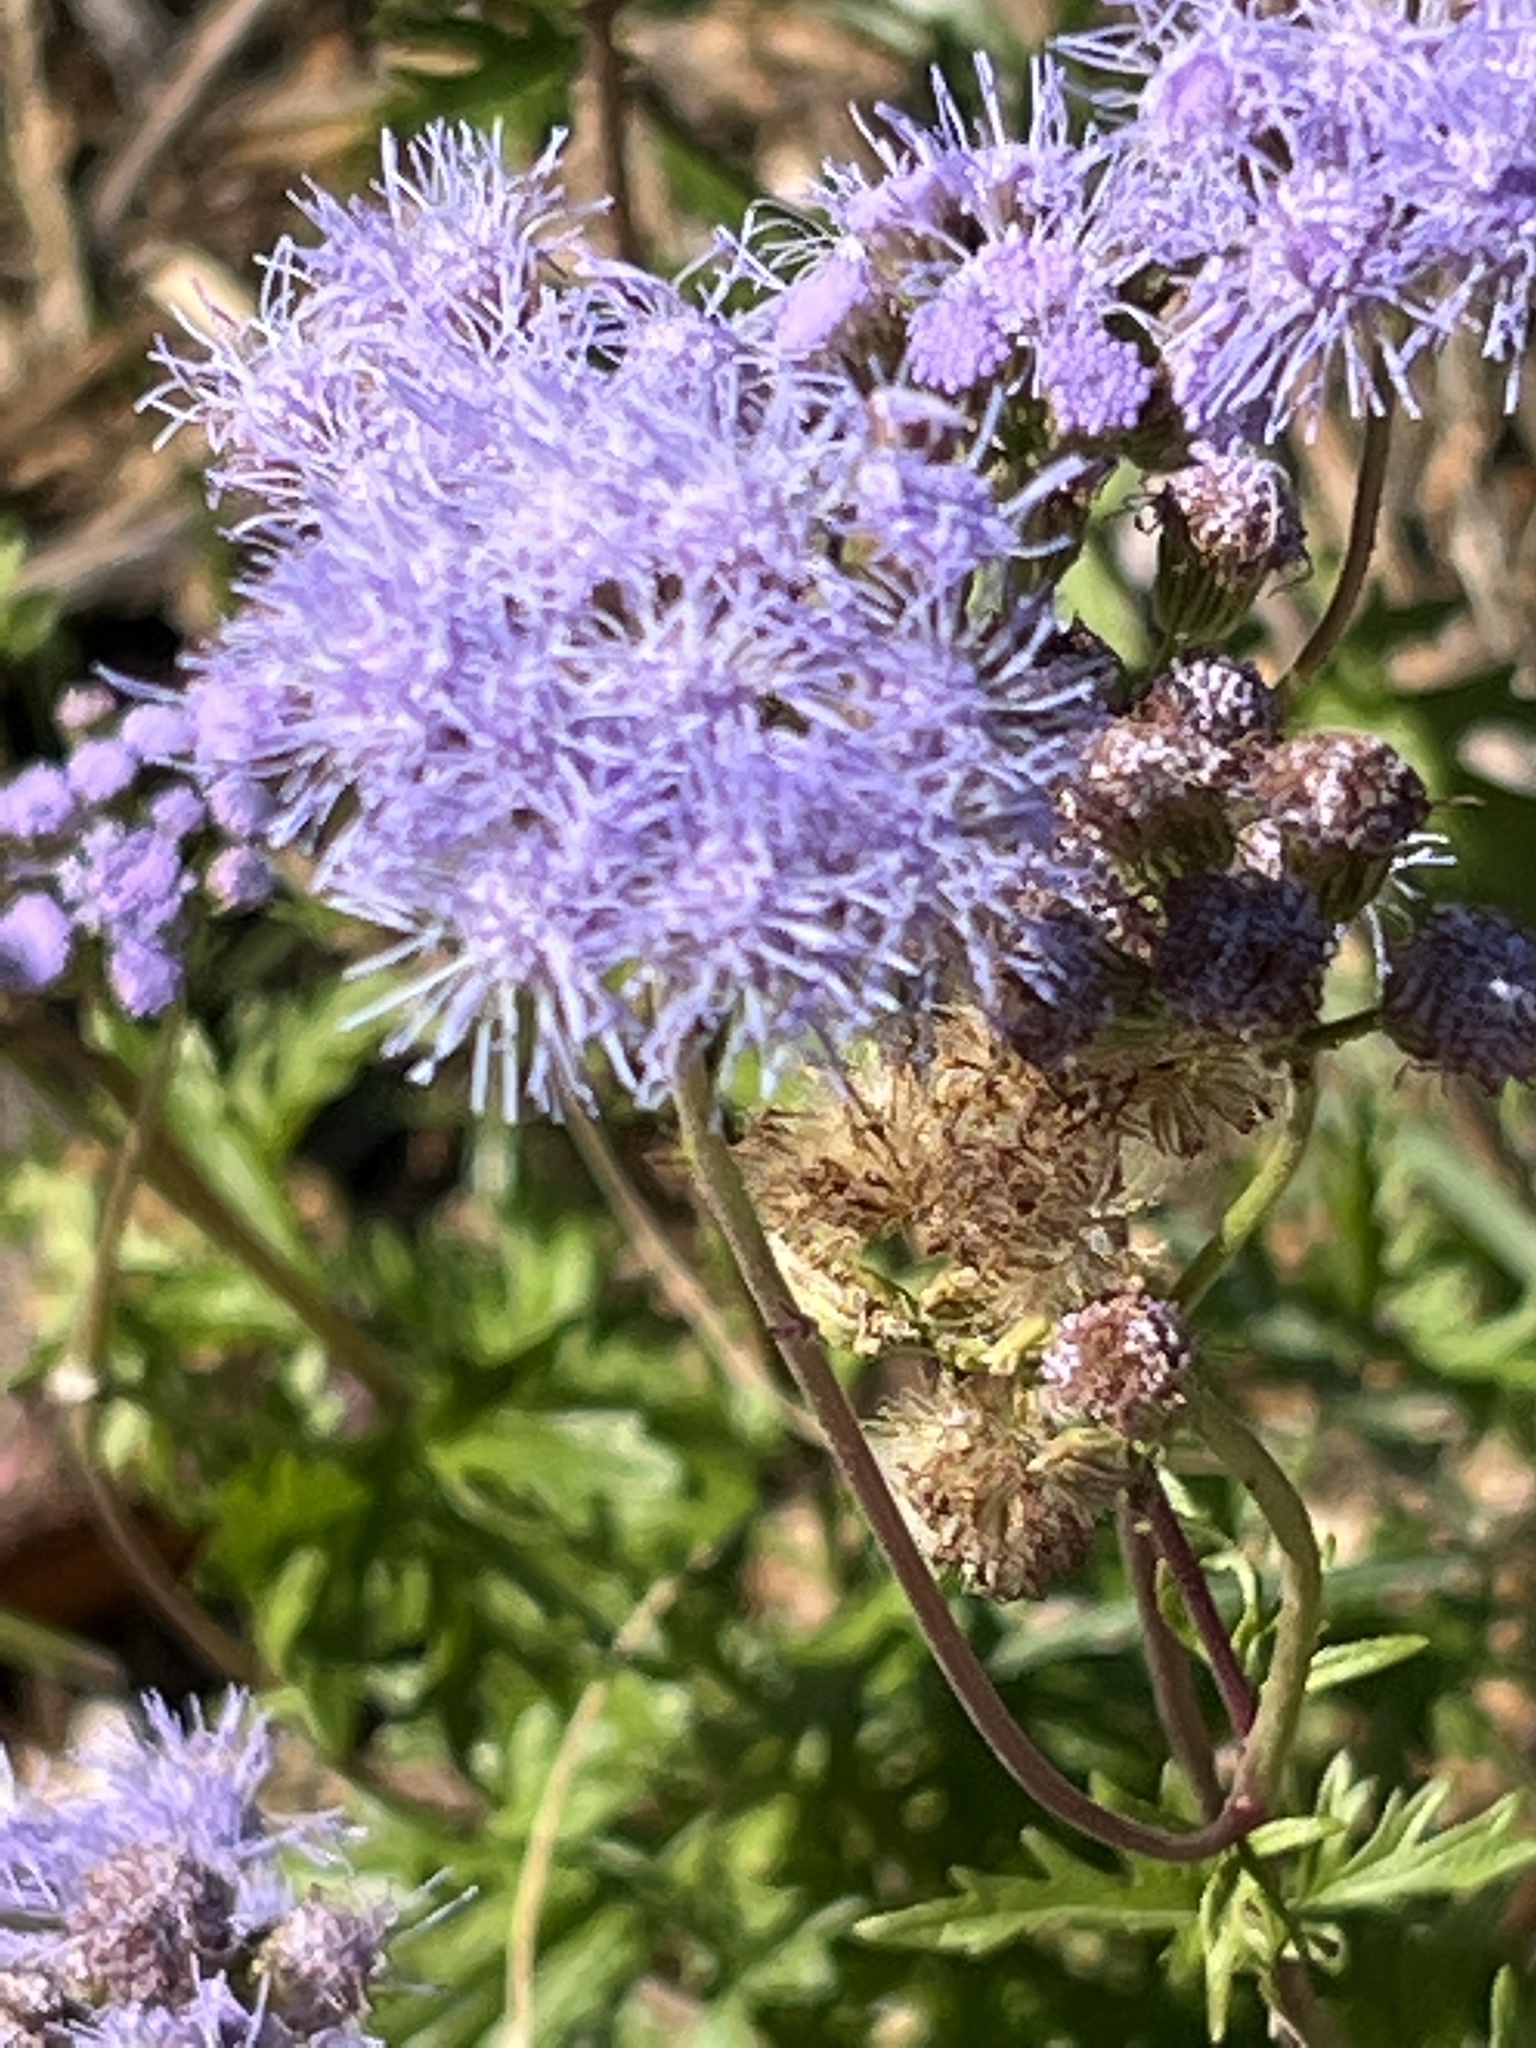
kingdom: Plantae
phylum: Tracheophyta
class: Magnoliopsida
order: Asterales
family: Asteraceae
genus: Conoclinium
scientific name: Conoclinium dissectum
